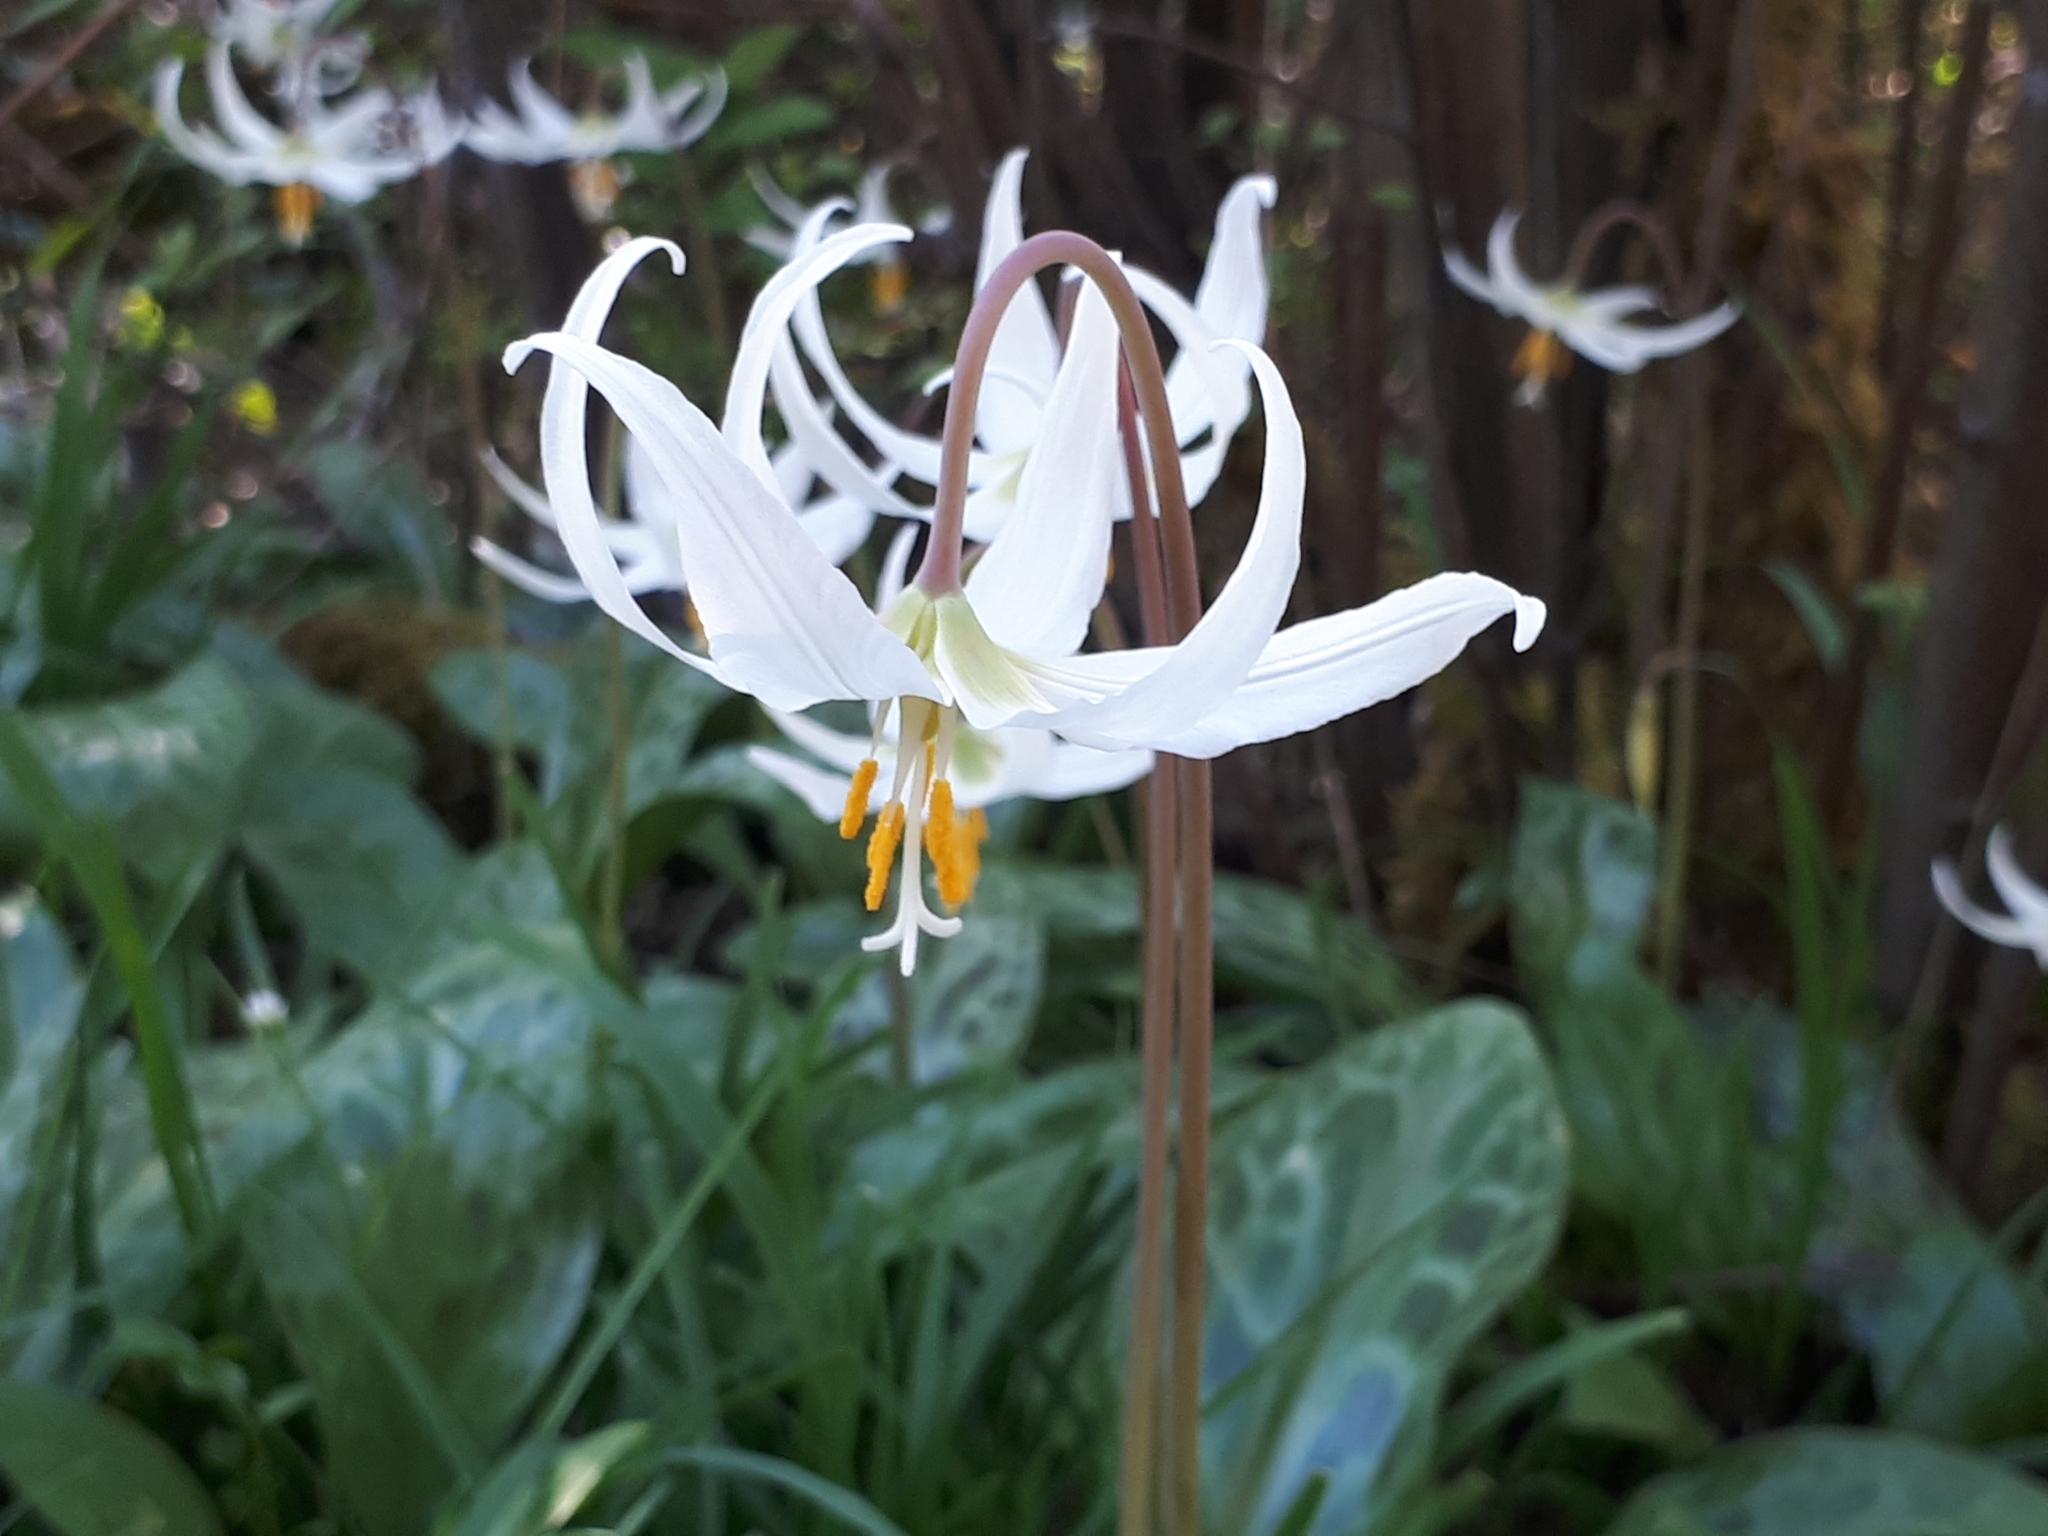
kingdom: Plantae
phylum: Tracheophyta
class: Liliopsida
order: Liliales
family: Liliaceae
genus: Erythronium
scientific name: Erythronium oregonum
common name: Giant adder's-tongue
